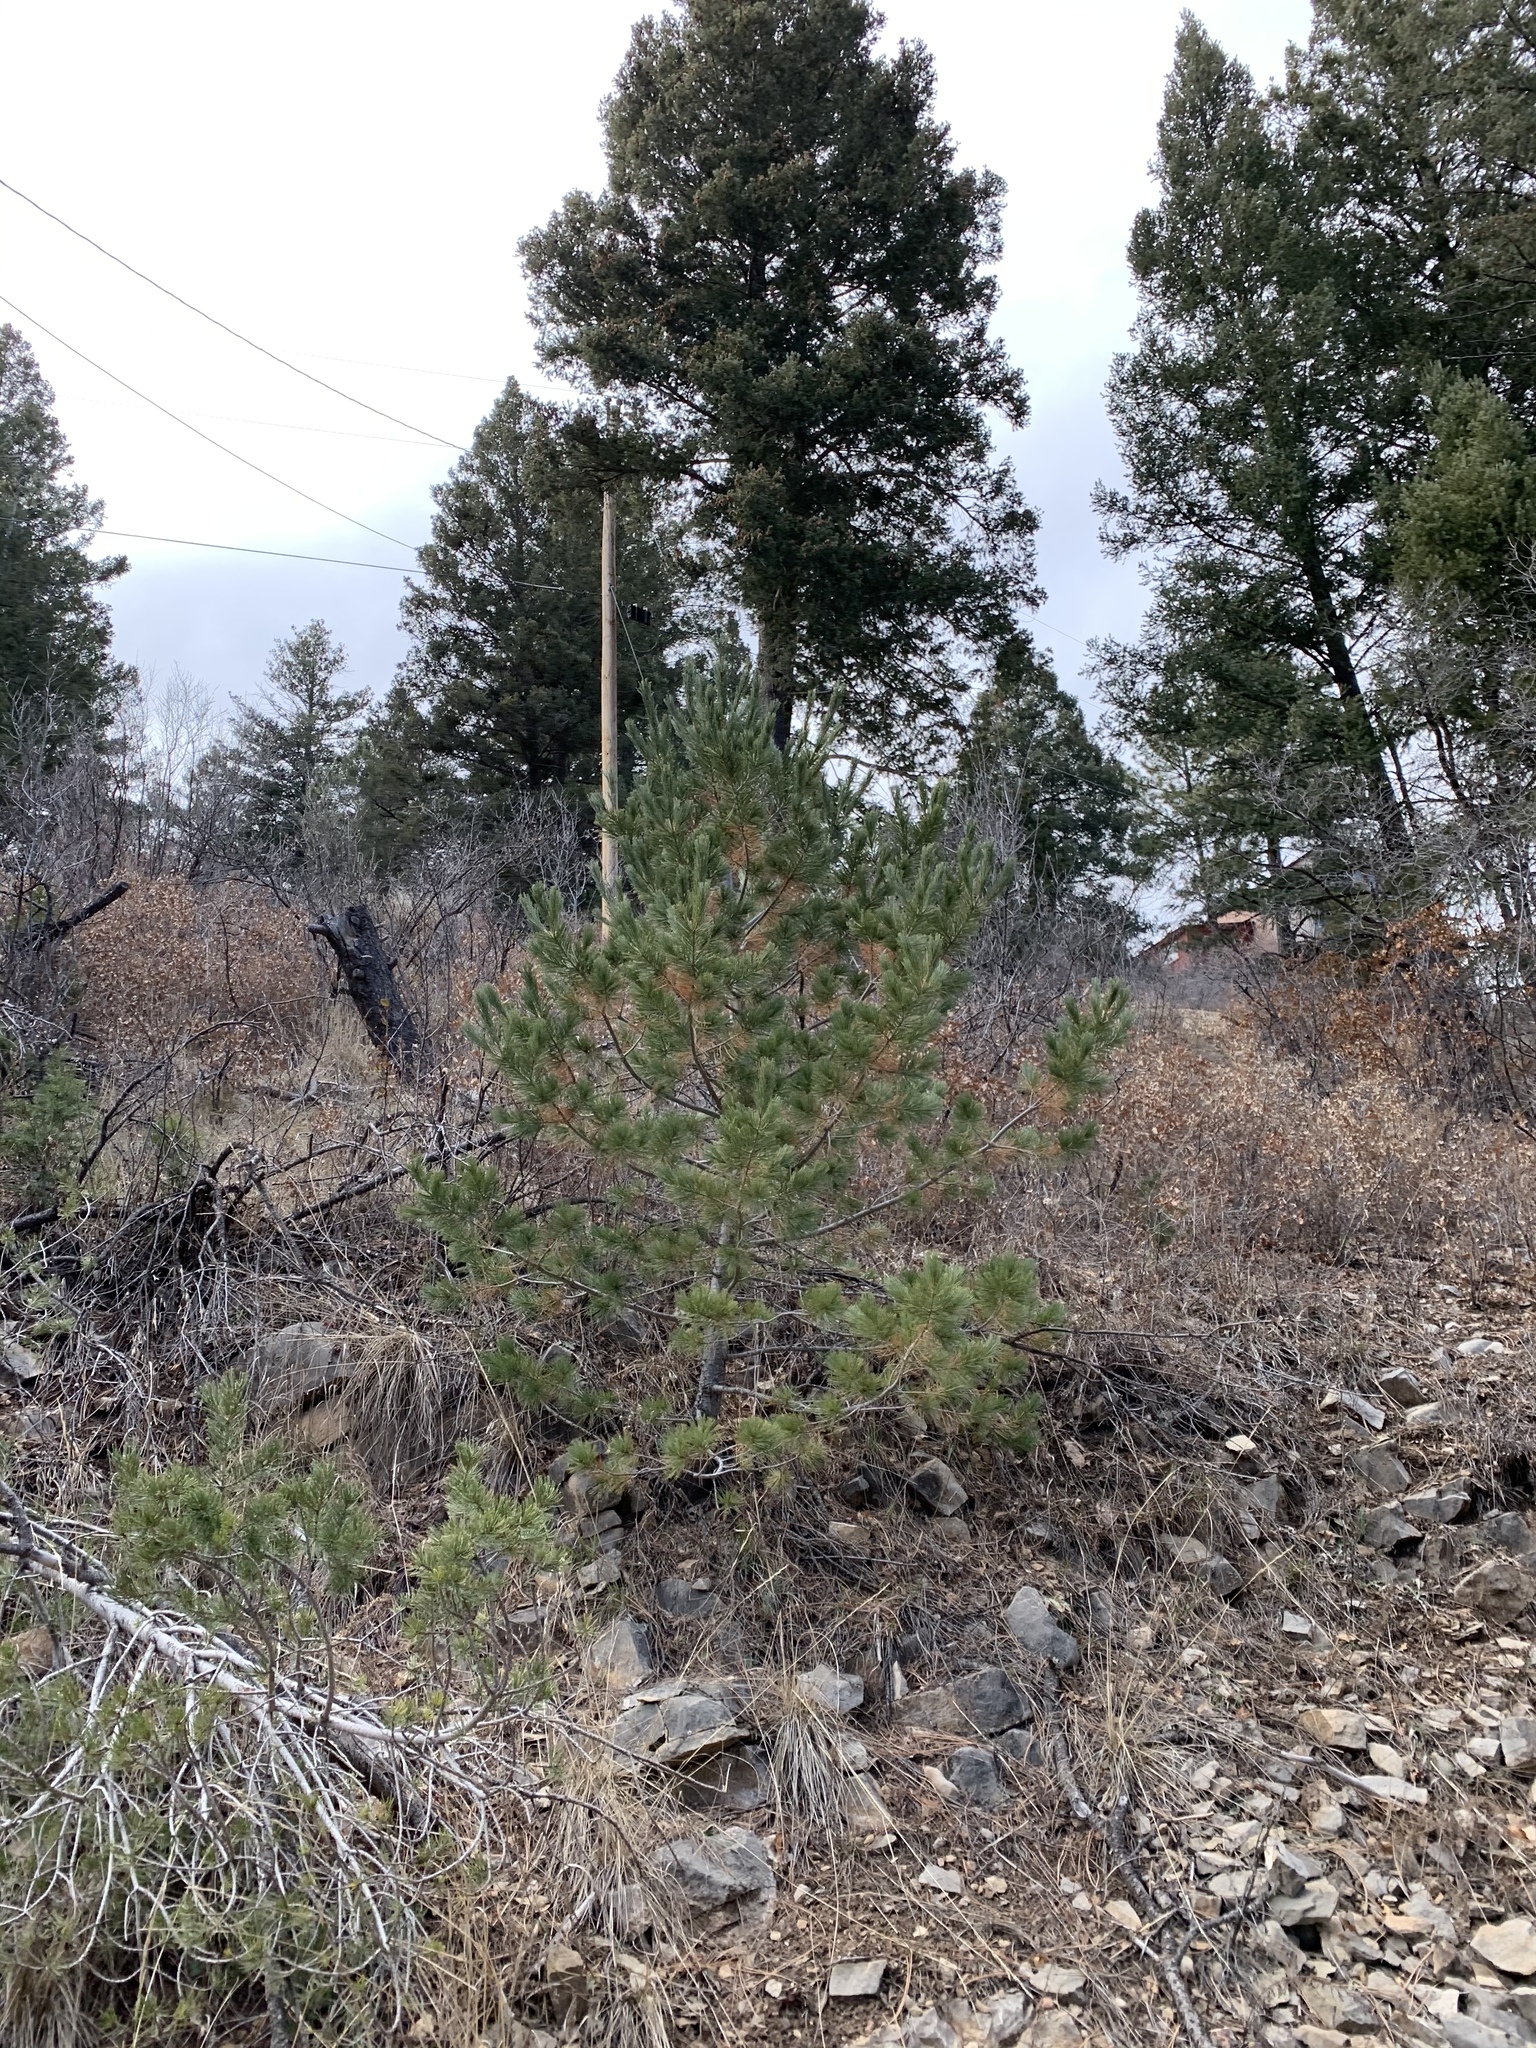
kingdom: Plantae
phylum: Tracheophyta
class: Pinopsida
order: Pinales
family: Pinaceae
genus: Pinus
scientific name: Pinus strobiformis
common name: Southwestern white pine
